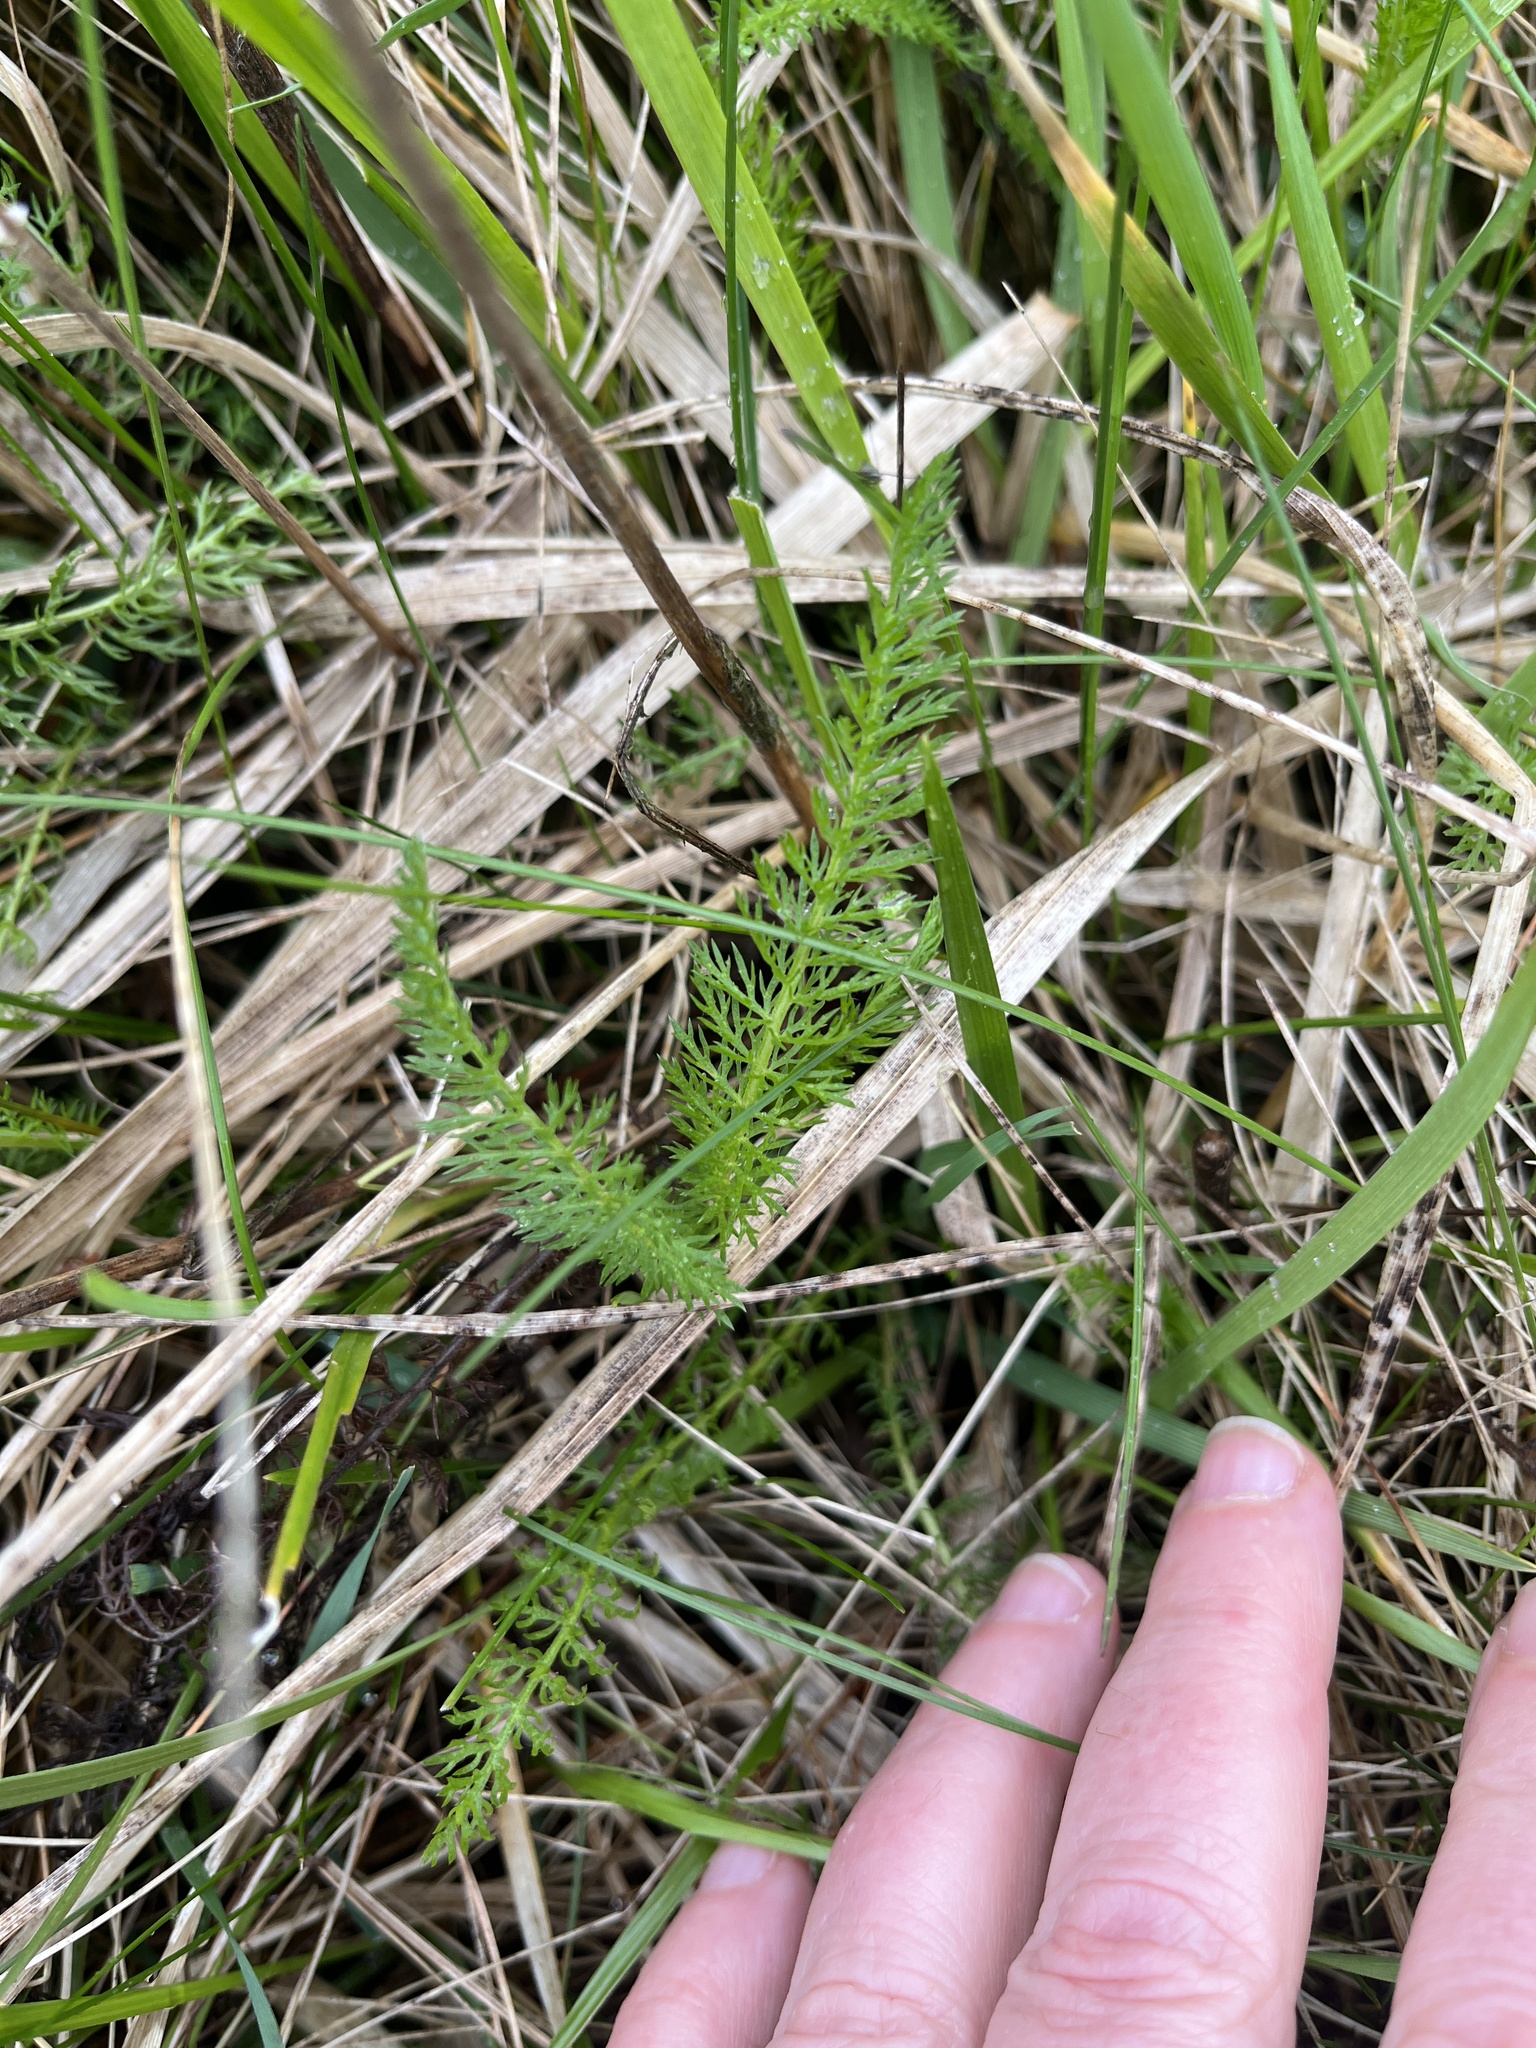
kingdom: Plantae
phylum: Tracheophyta
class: Magnoliopsida
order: Asterales
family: Asteraceae
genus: Achillea
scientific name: Achillea millefolium
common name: Yarrow
